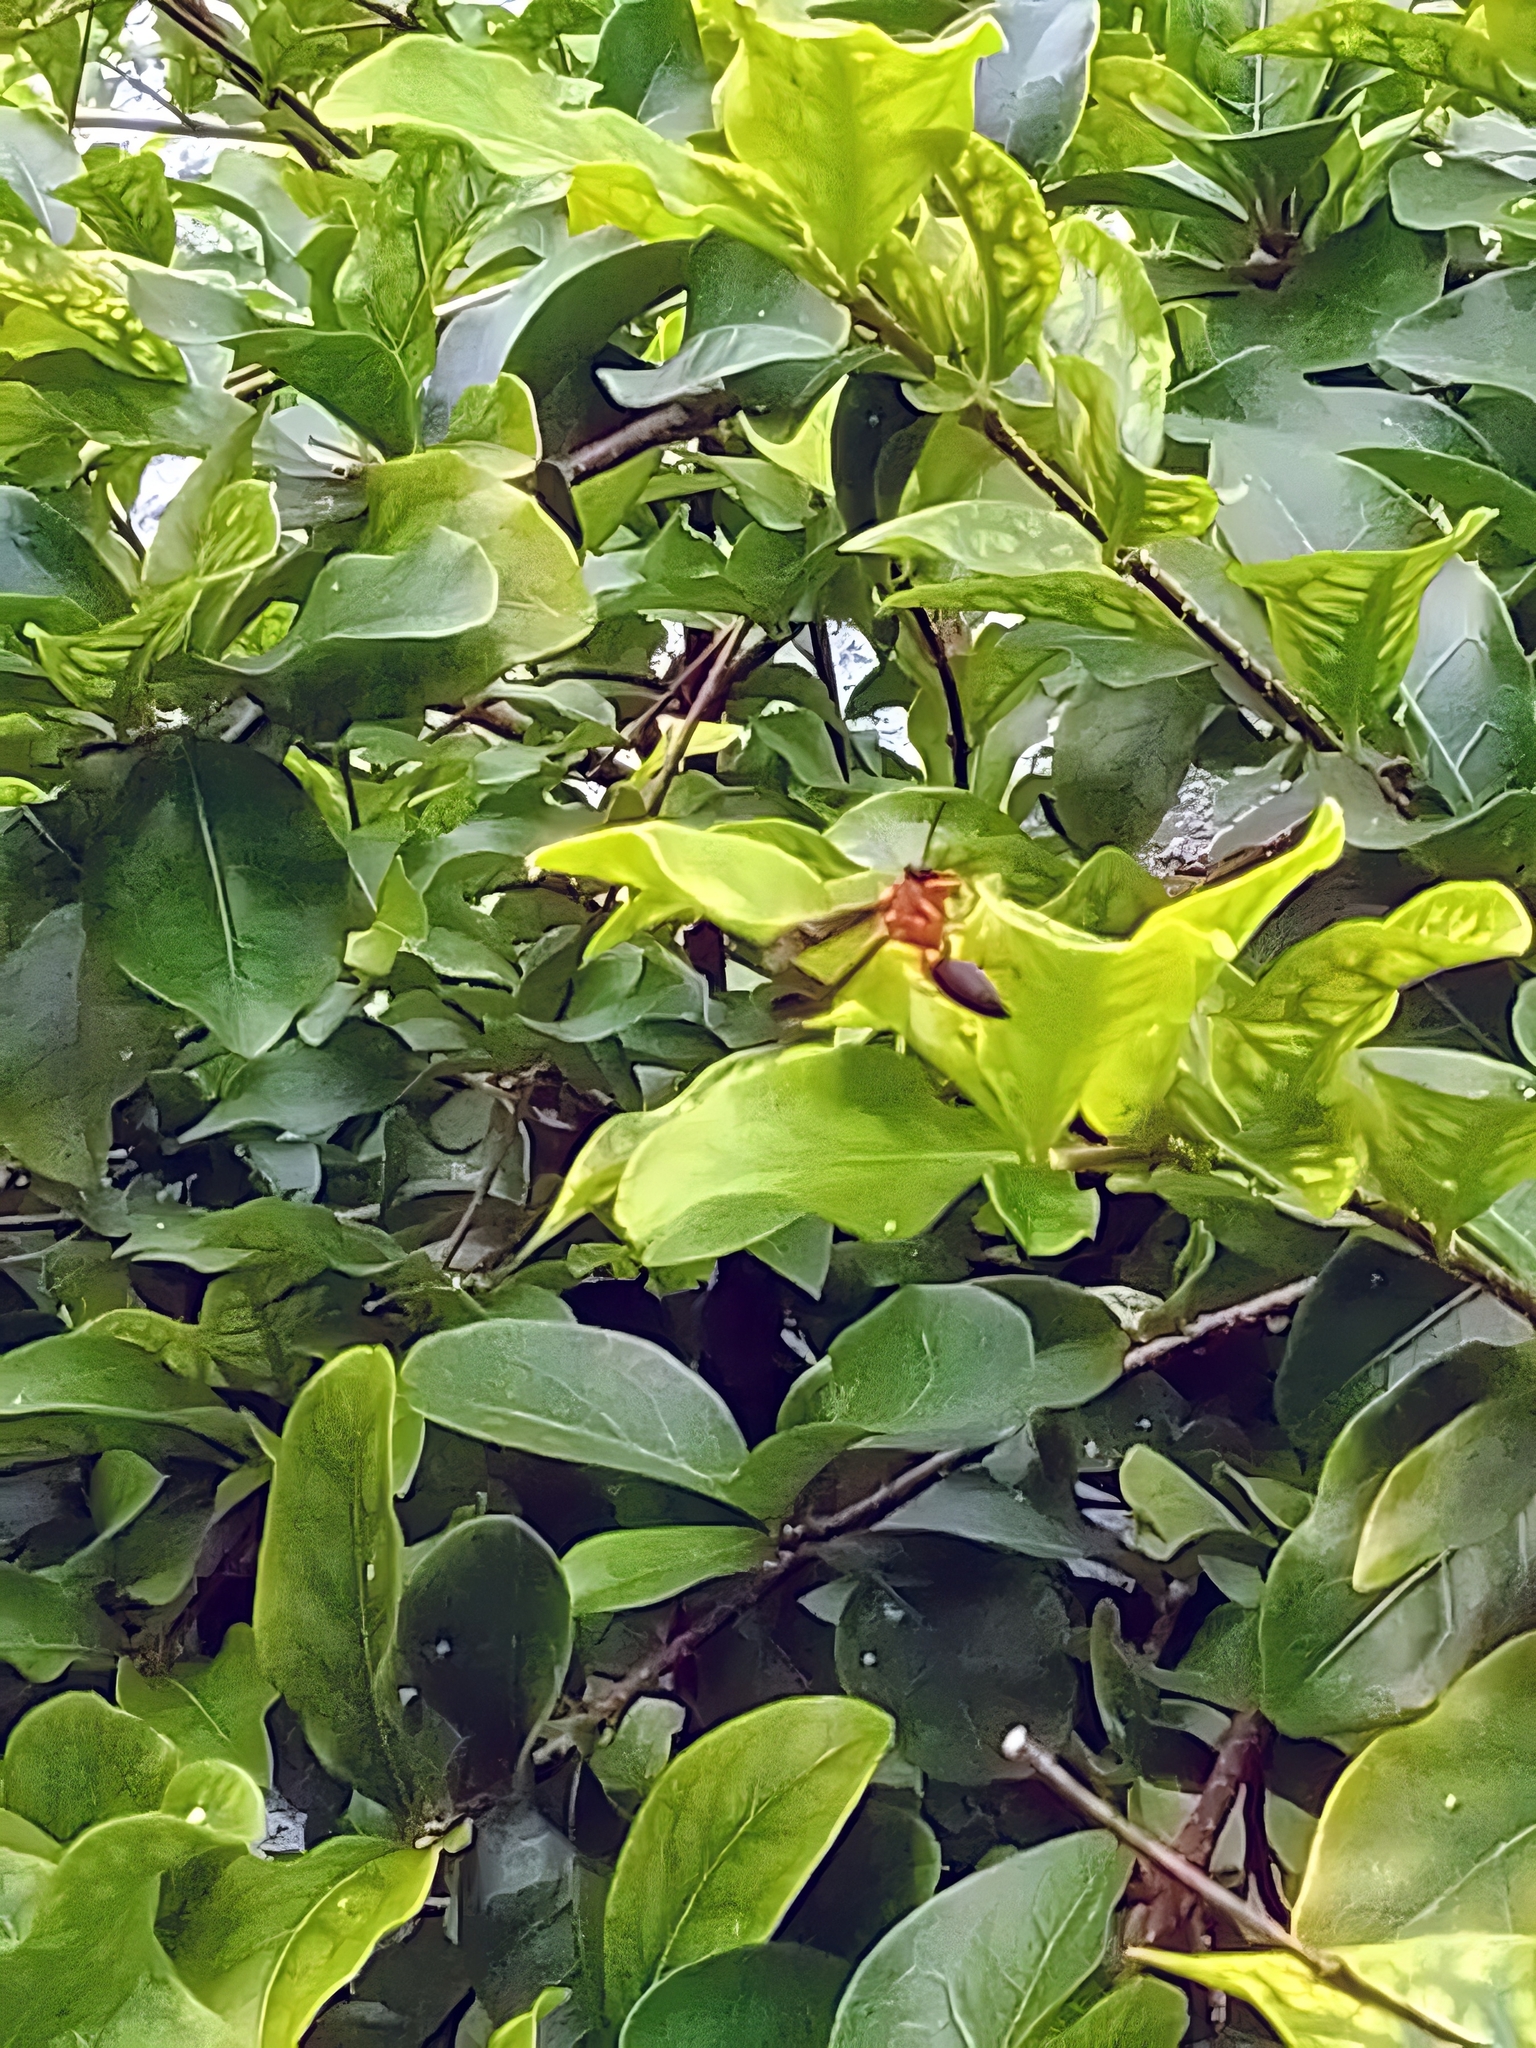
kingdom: Animalia
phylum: Arthropoda
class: Insecta
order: Hymenoptera
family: Eumenidae
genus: Polybia
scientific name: Polybia sericea
